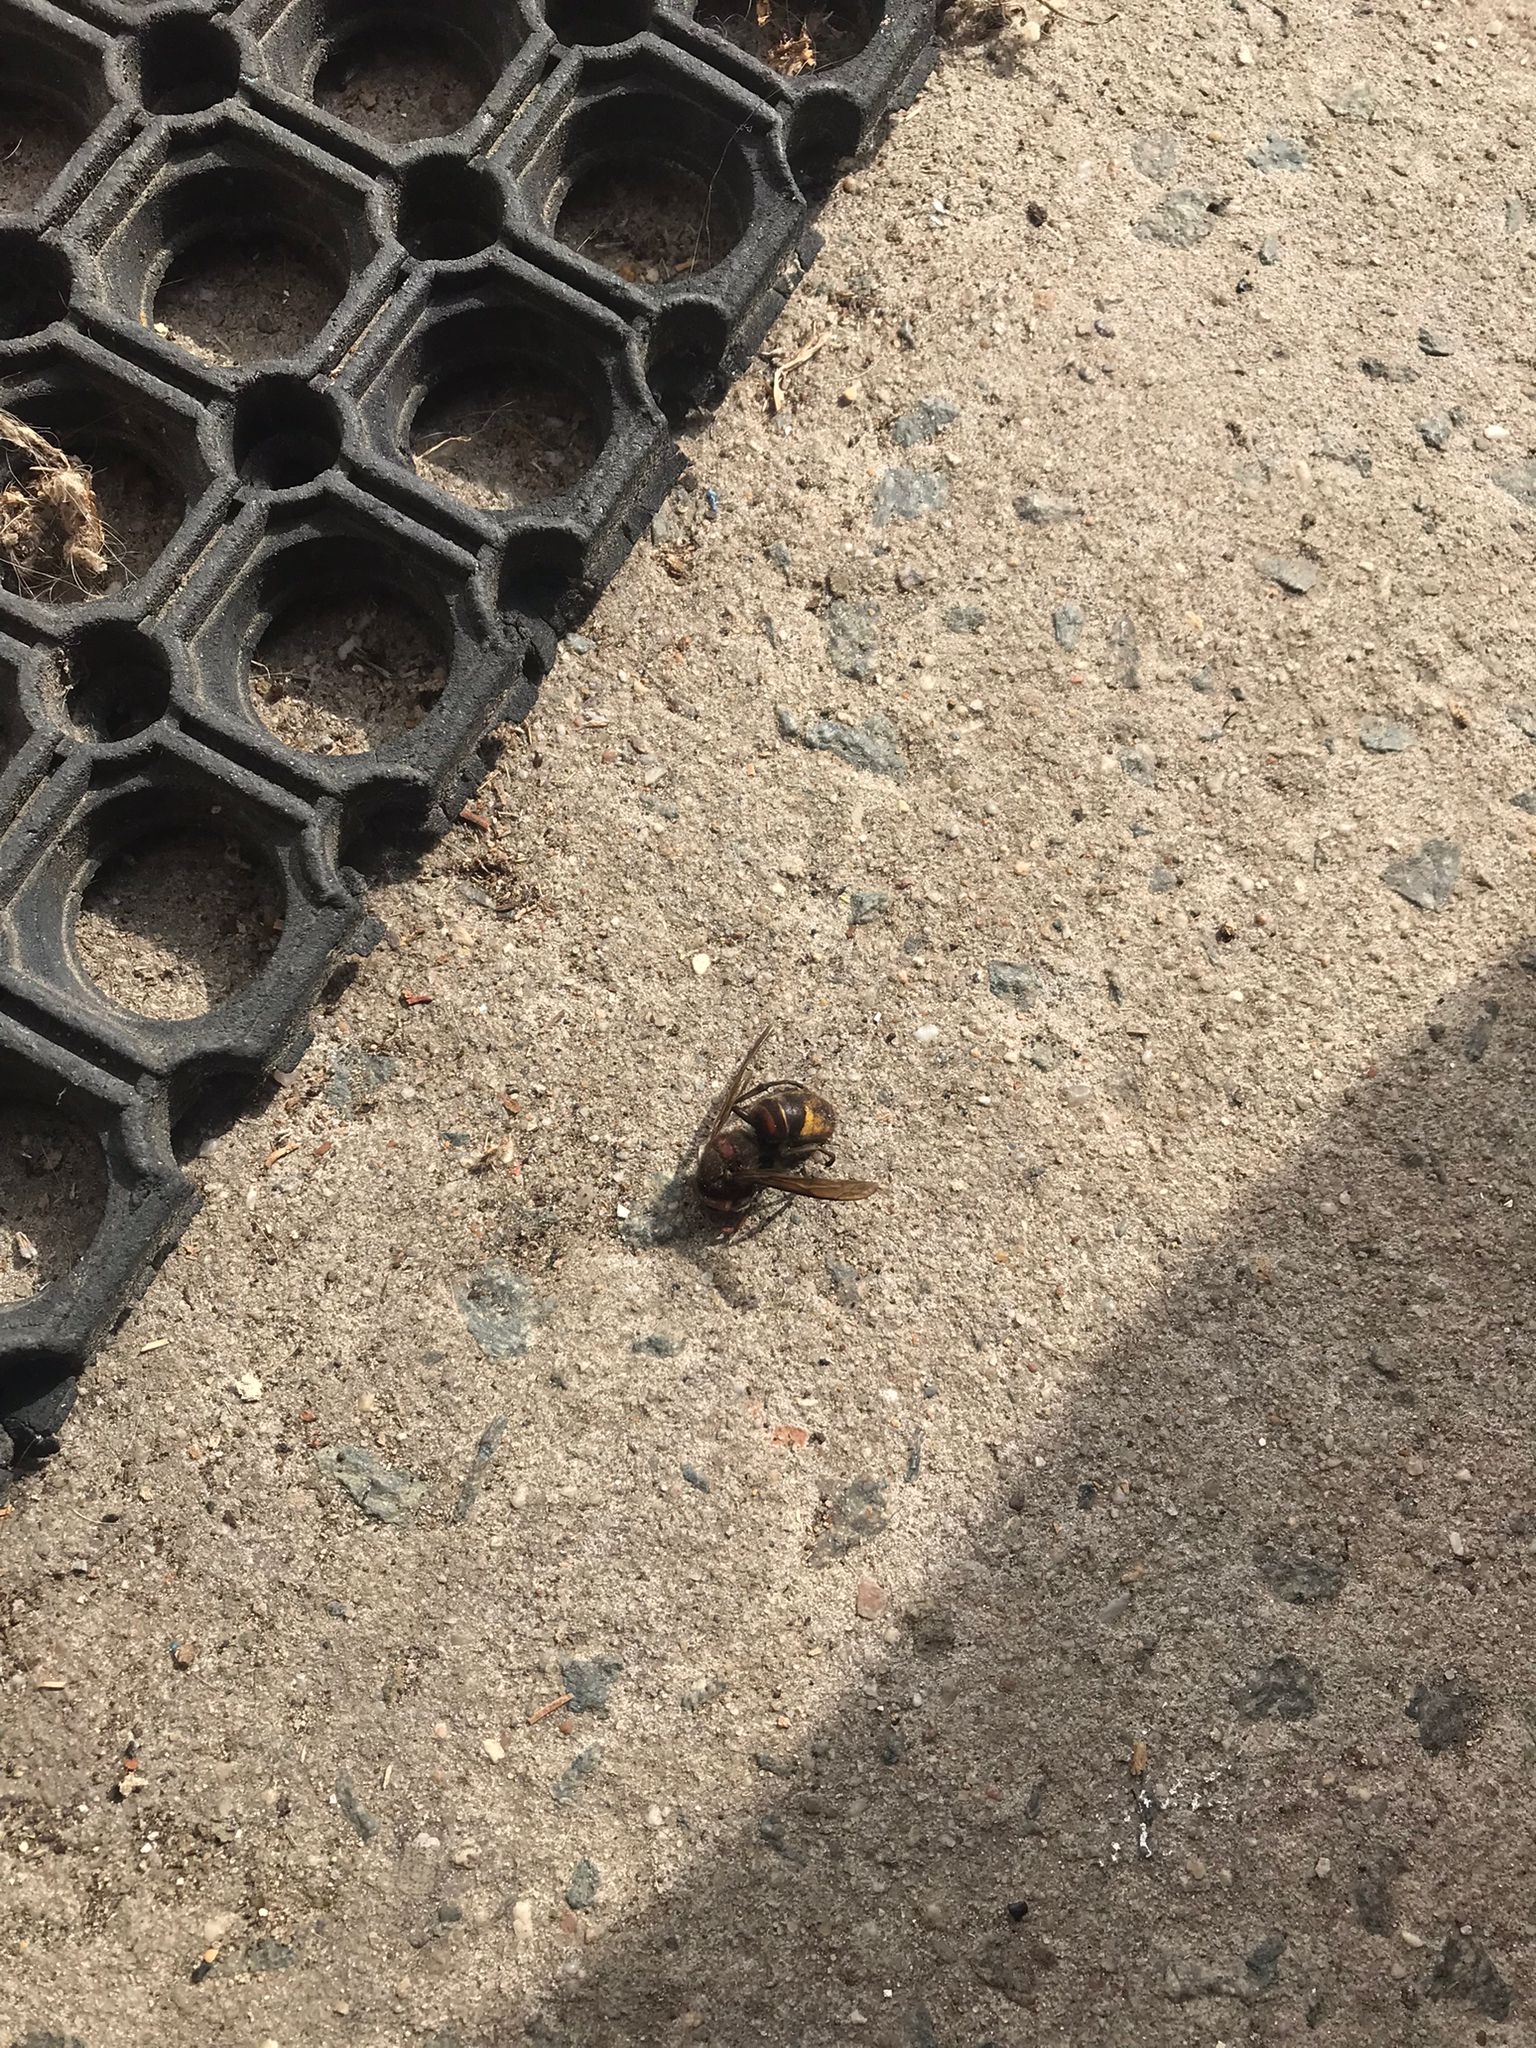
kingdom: Animalia
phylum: Arthropoda
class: Insecta
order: Hymenoptera
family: Vespidae
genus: Vespa
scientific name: Vespa crabro
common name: Hornet
